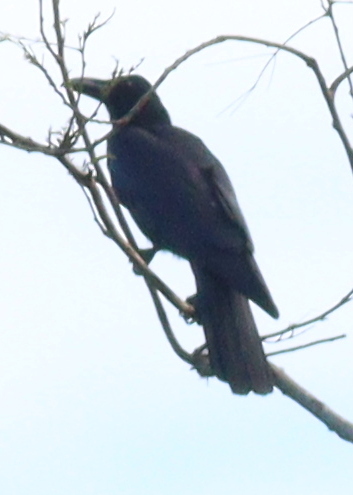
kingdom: Animalia
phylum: Chordata
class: Aves
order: Passeriformes
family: Corvidae
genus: Corvus
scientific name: Corvus macrorhynchos
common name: Large-billed crow
